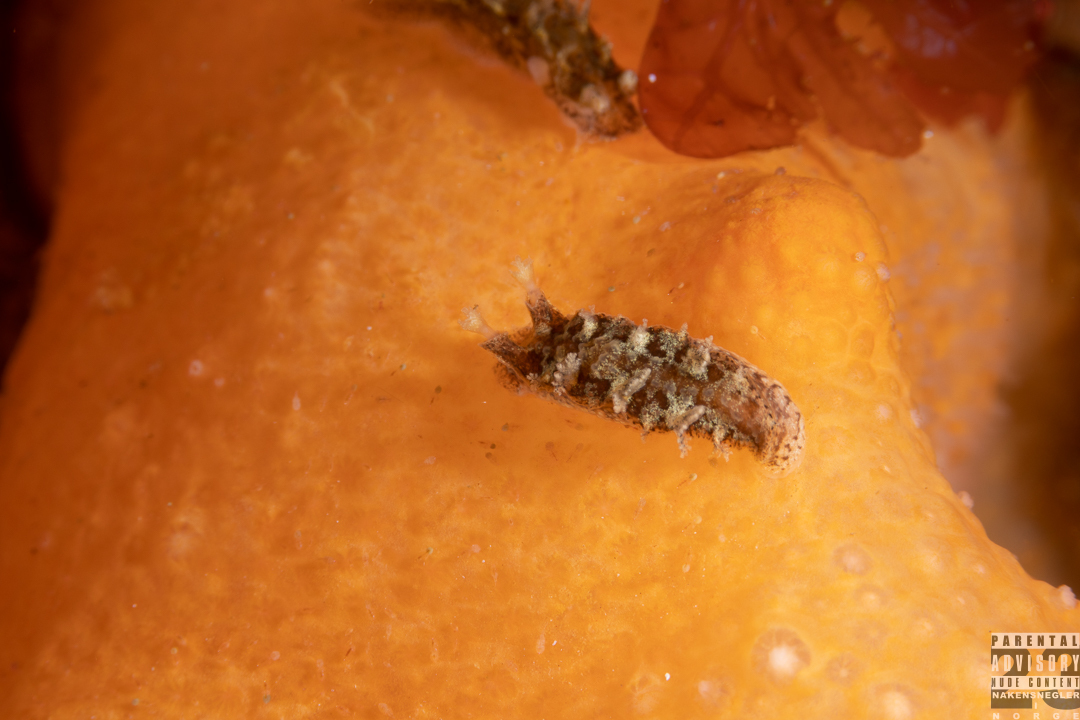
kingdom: Animalia
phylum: Mollusca
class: Gastropoda
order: Nudibranchia
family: Tritoniidae
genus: Duvaucelia
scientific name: Duvaucelia plebeia
